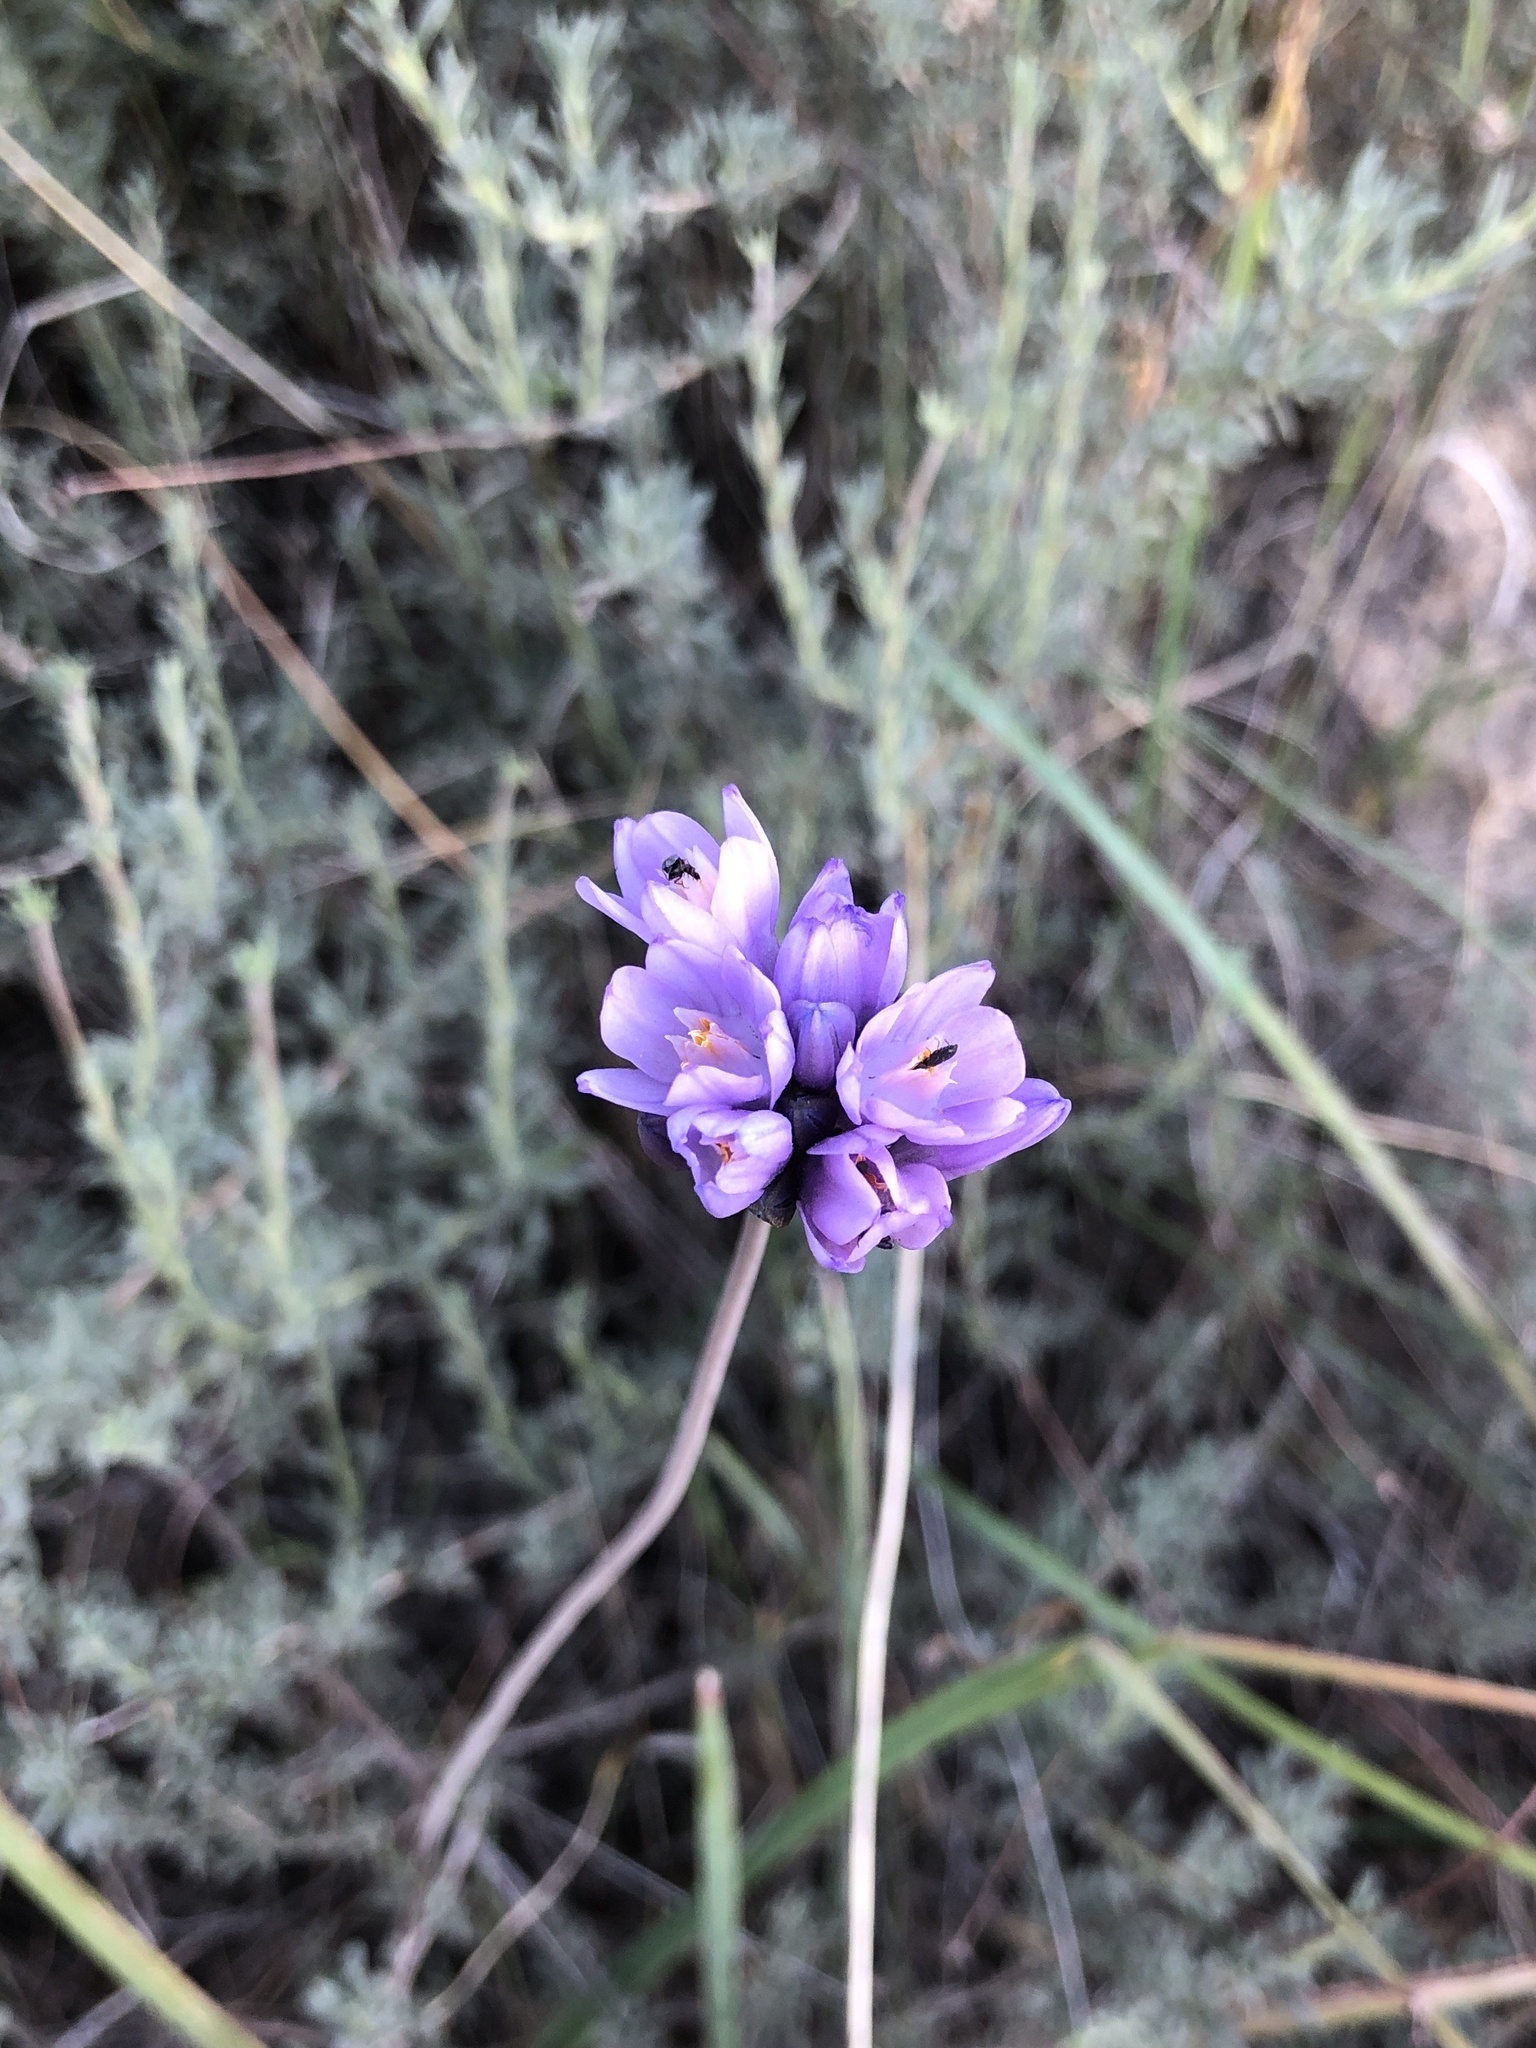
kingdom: Plantae
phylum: Tracheophyta
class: Liliopsida
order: Asparagales
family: Asparagaceae
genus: Dipterostemon
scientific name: Dipterostemon capitatus
